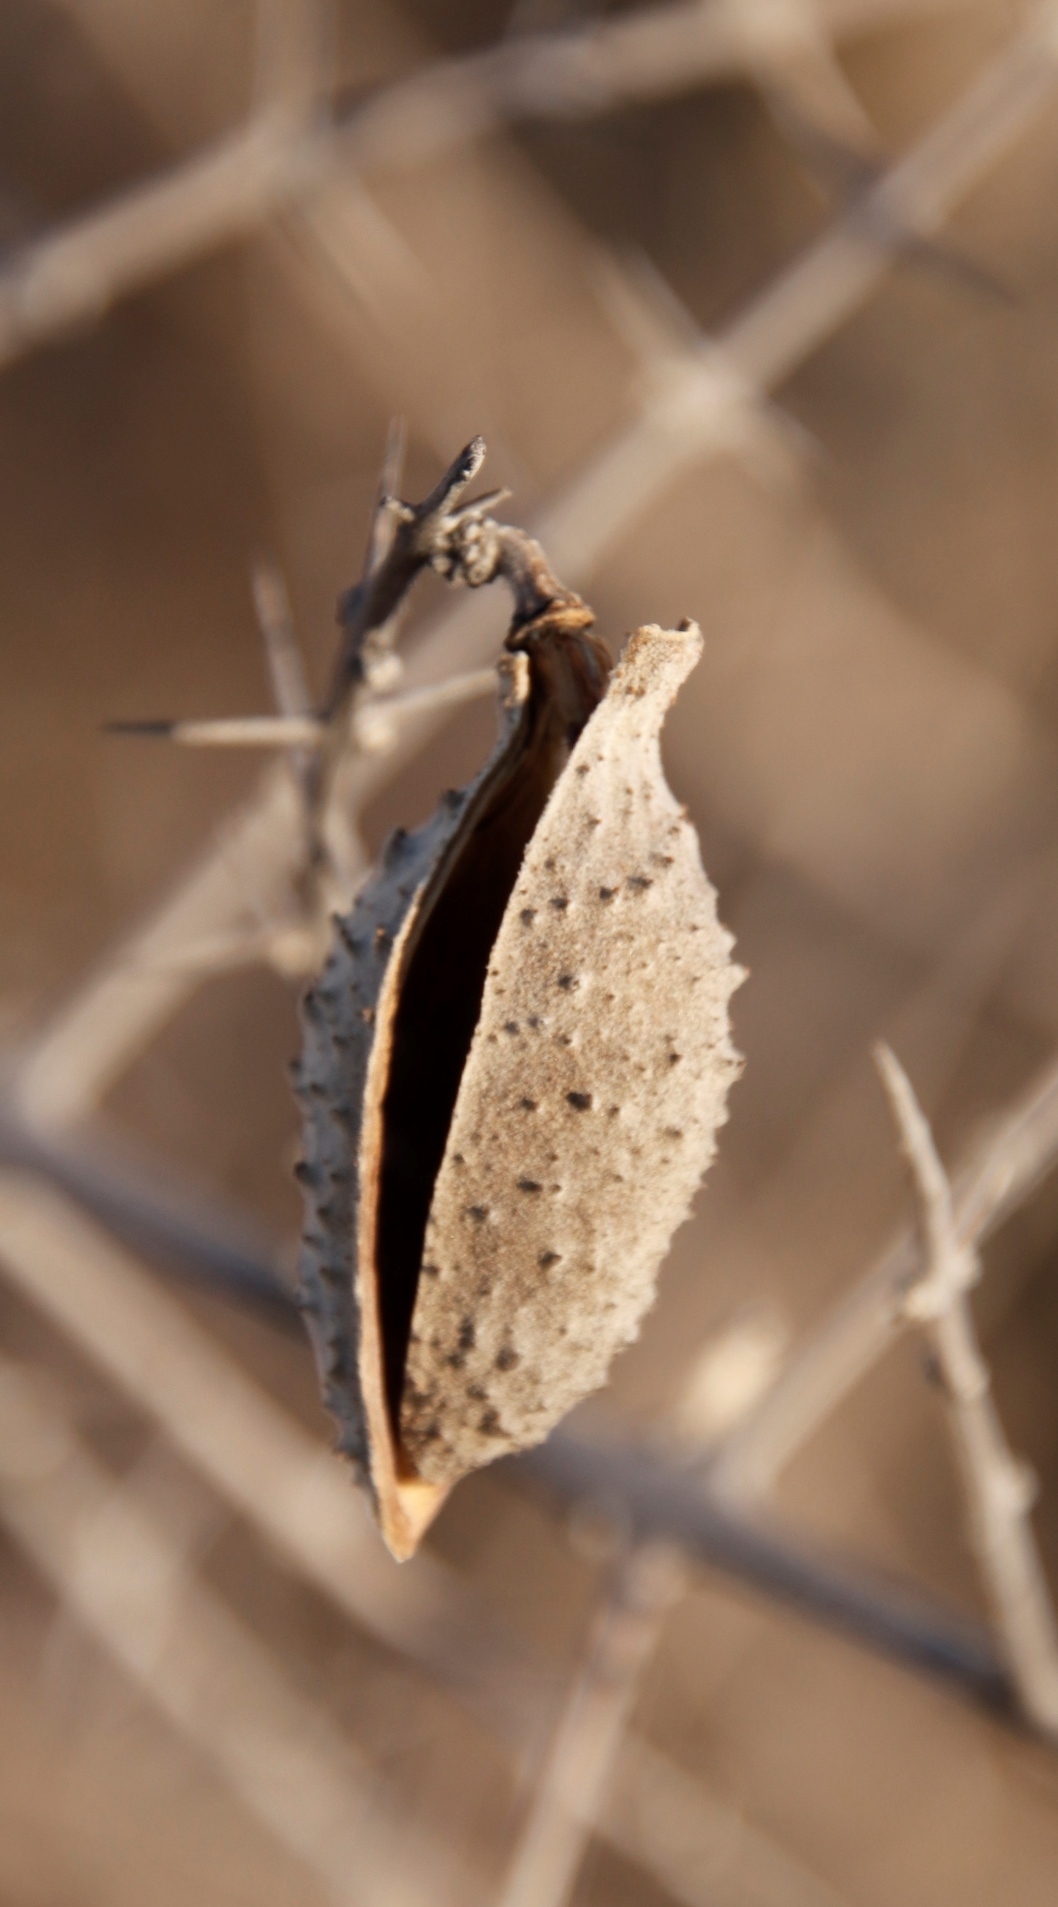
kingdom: Plantae
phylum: Tracheophyta
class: Magnoliopsida
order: Lamiales
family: Bignoniaceae
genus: Catophractes
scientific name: Catophractes alexandri
